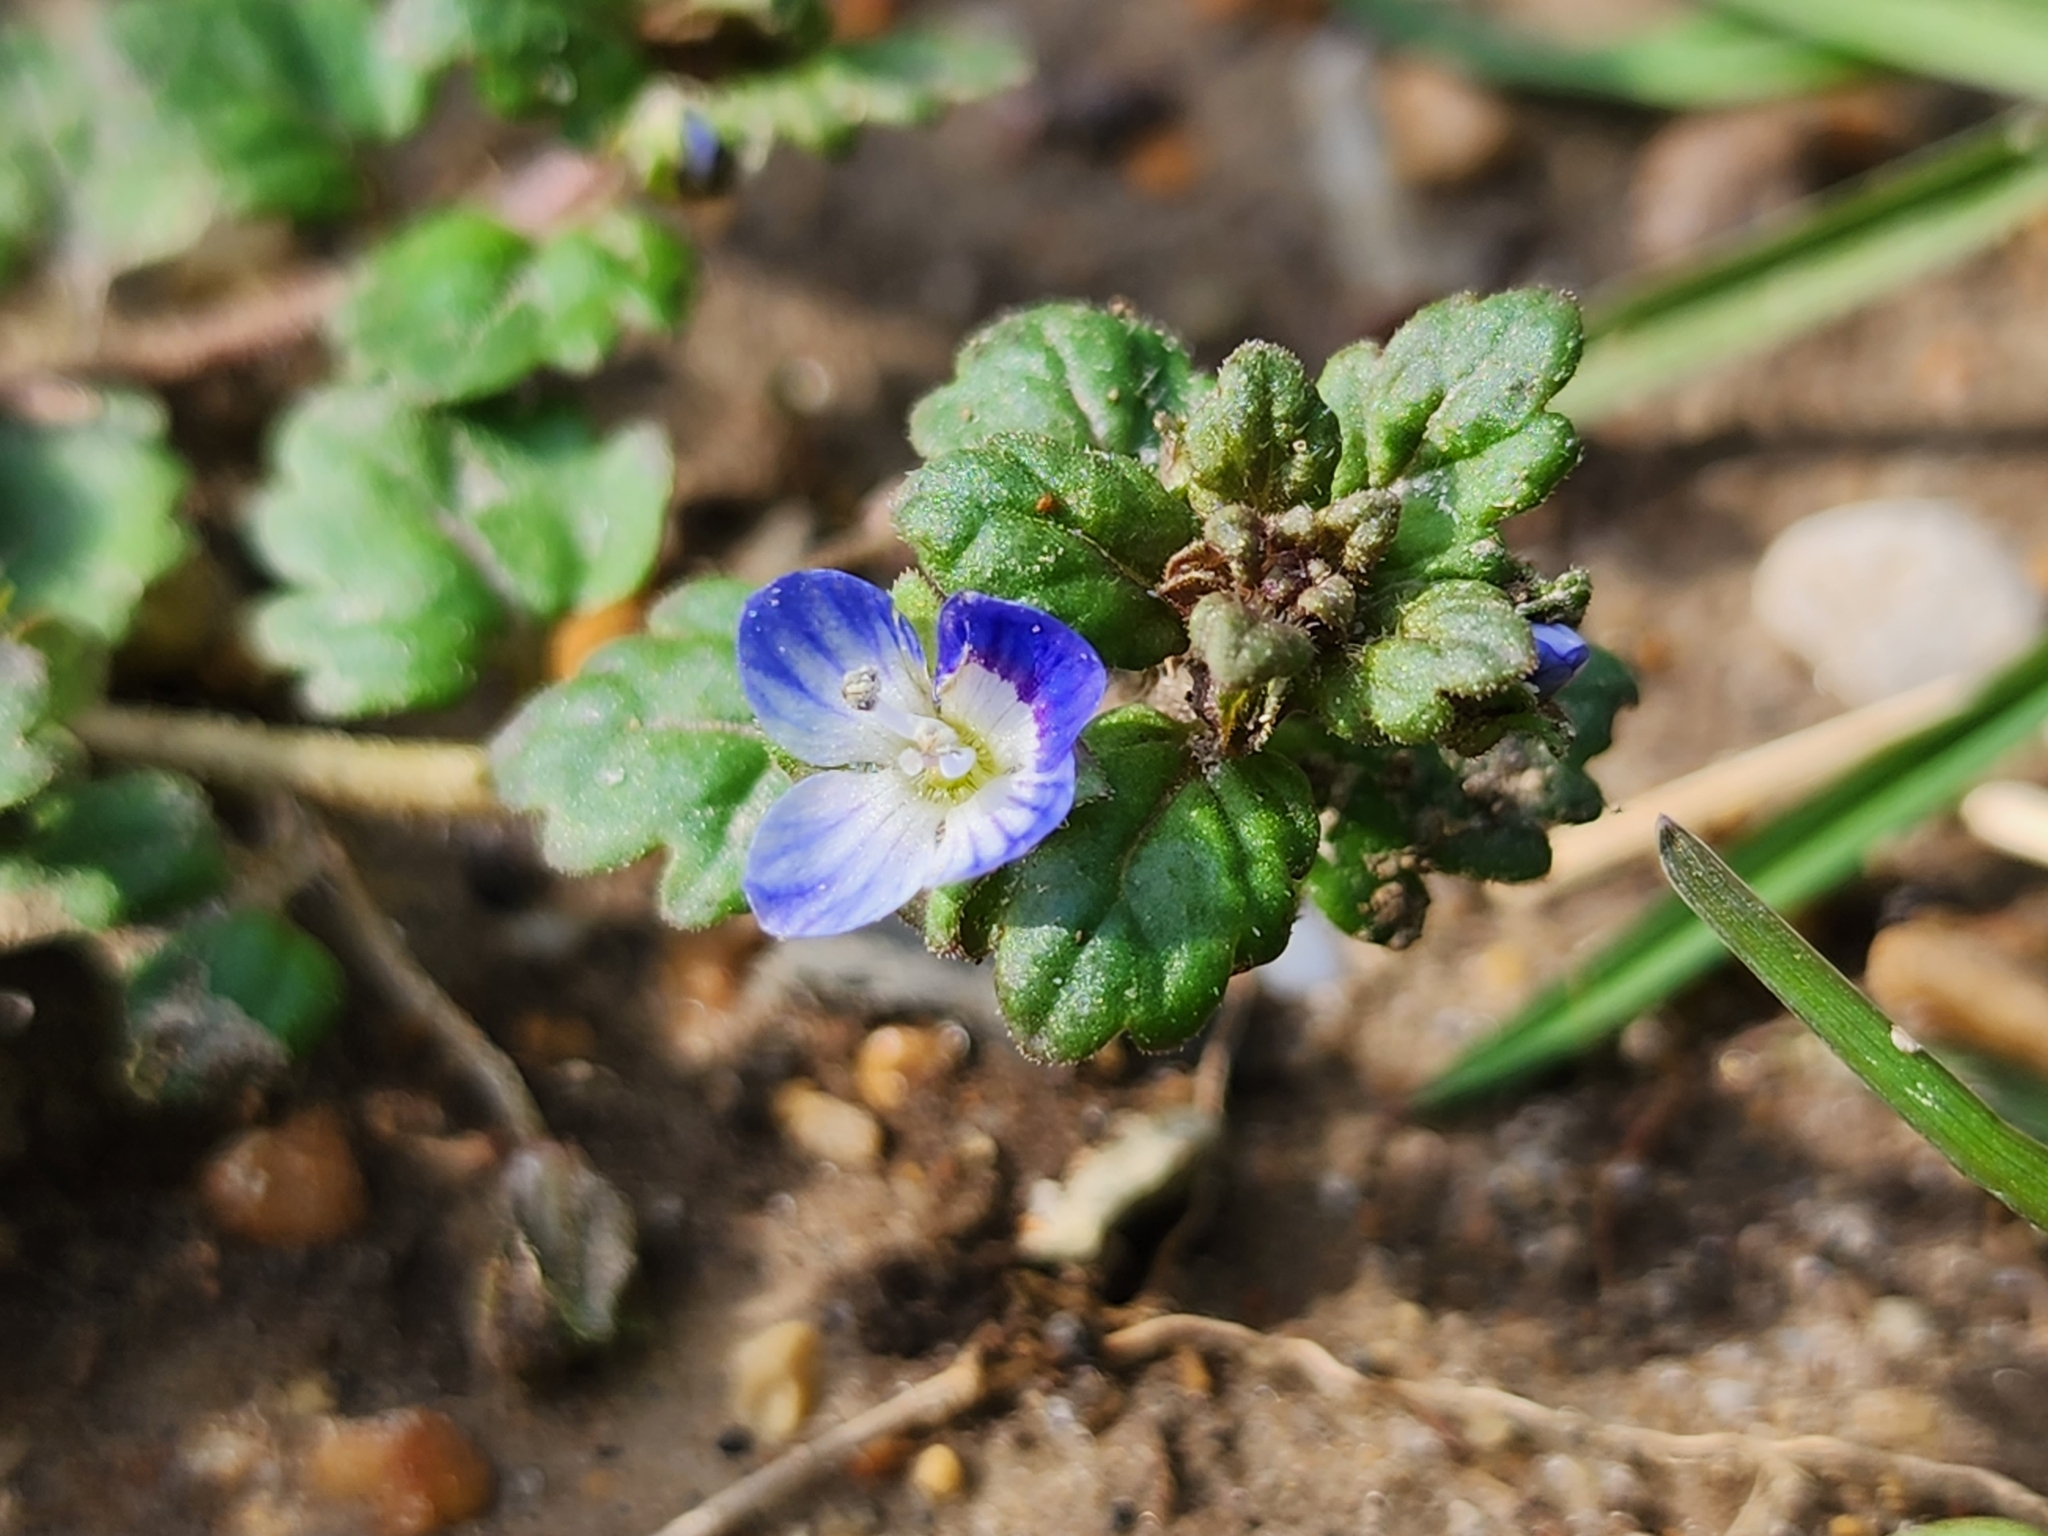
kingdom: Plantae
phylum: Tracheophyta
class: Magnoliopsida
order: Lamiales
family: Plantaginaceae
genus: Veronica
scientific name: Veronica polita
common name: Grey field-speedwell
